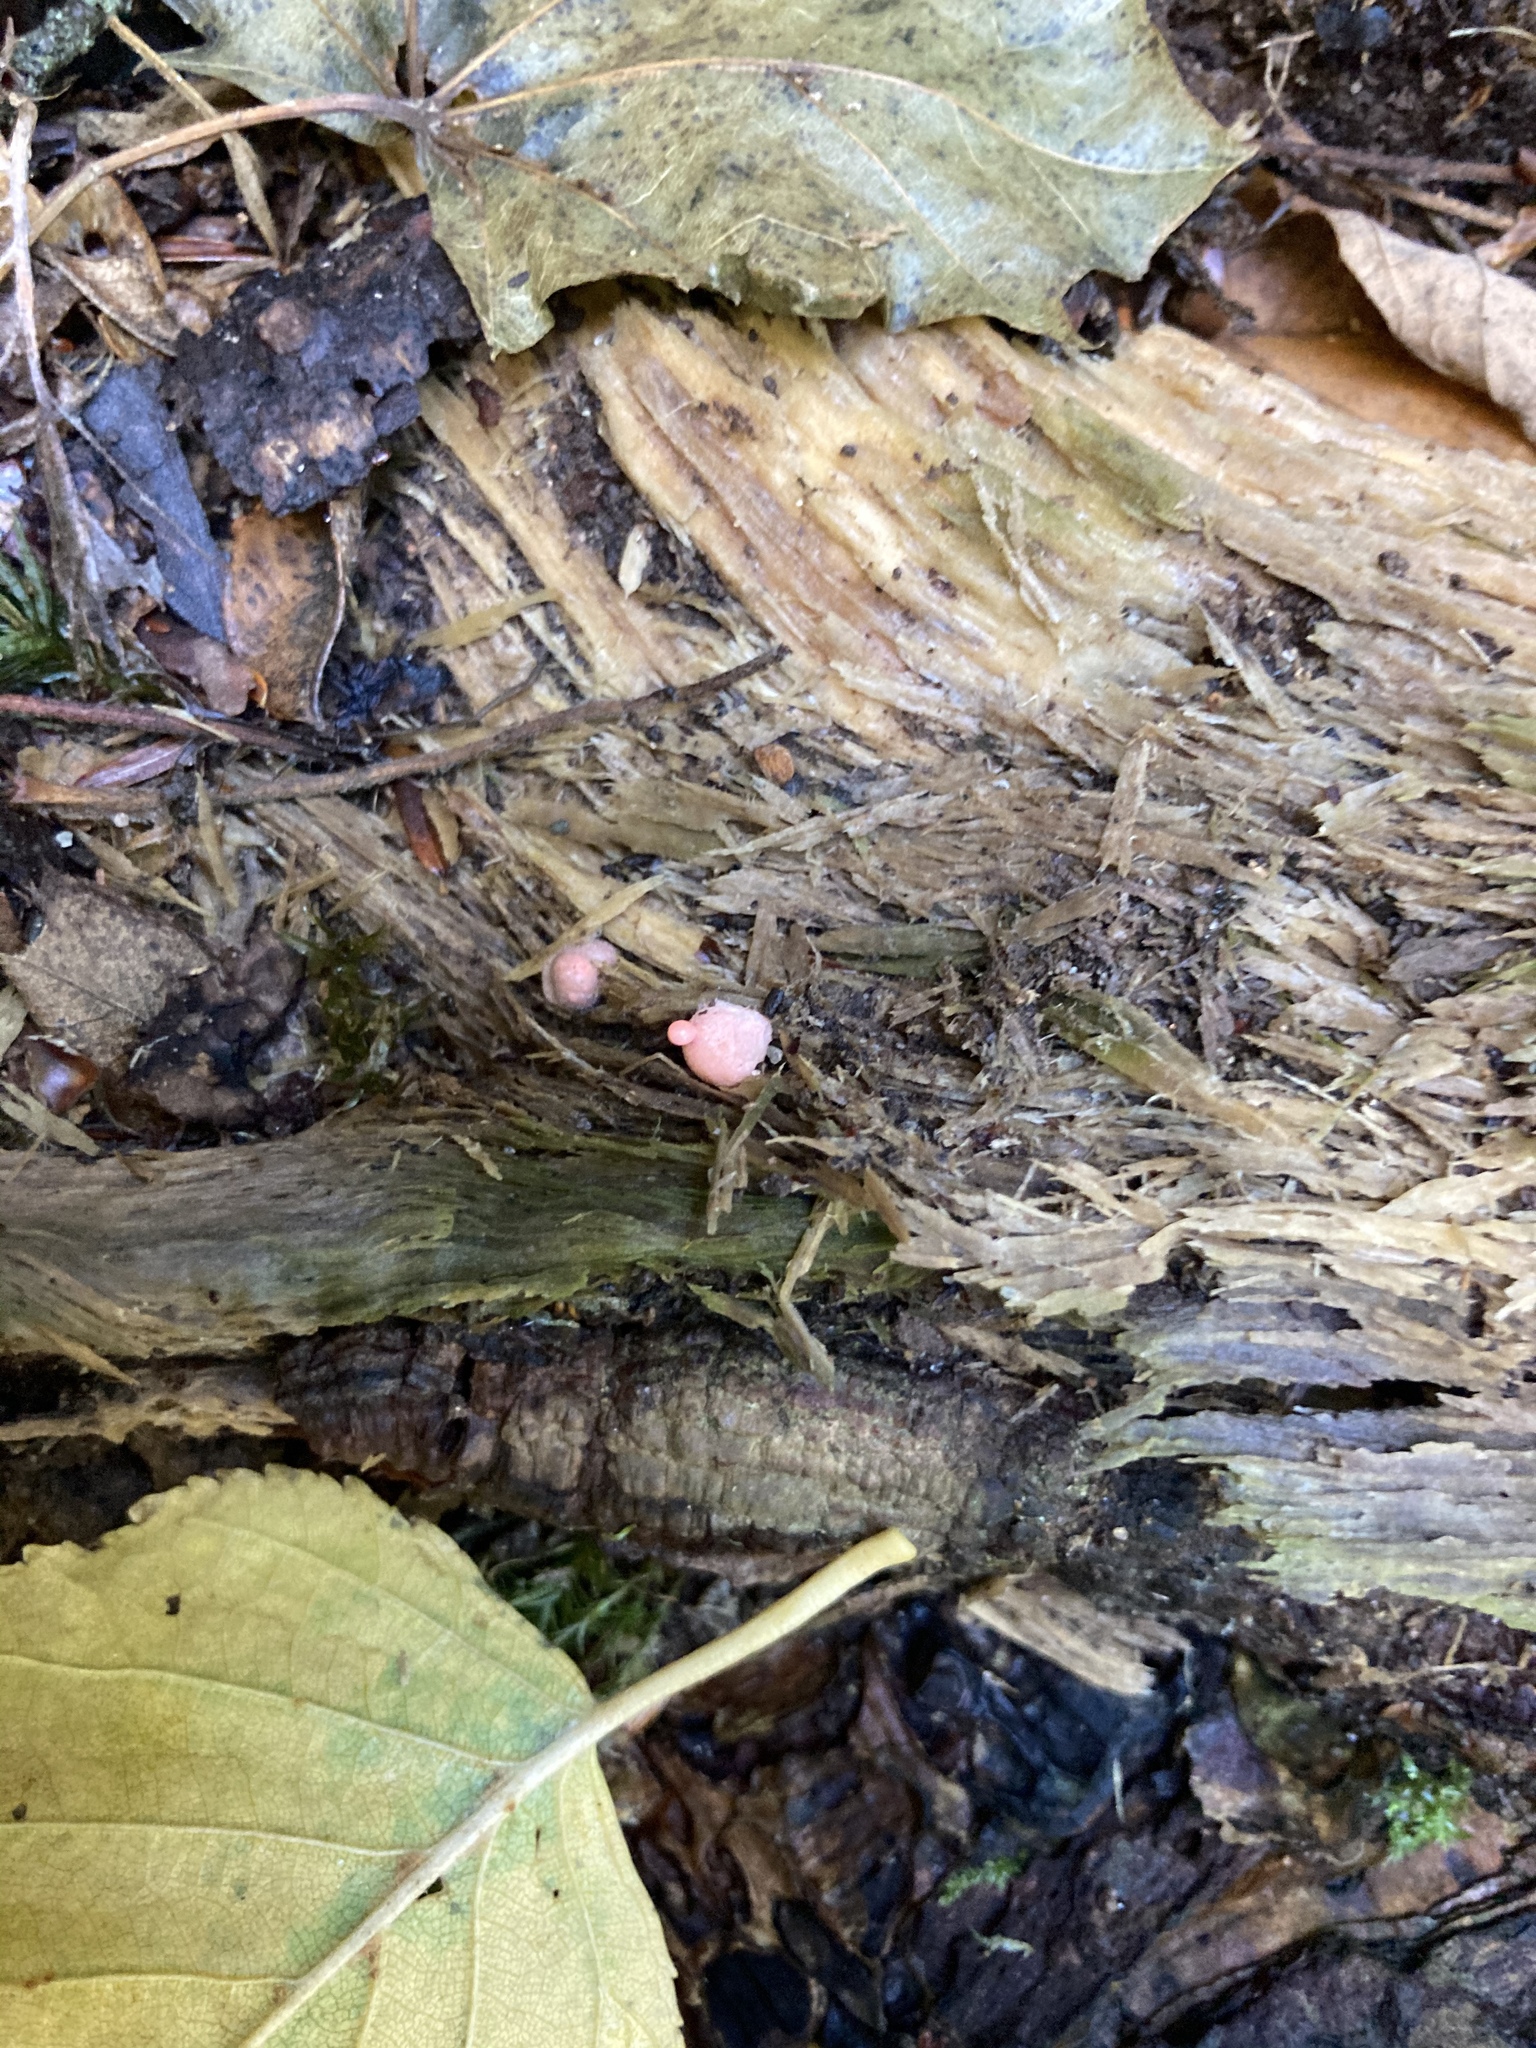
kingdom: Protozoa
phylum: Mycetozoa
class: Myxomycetes
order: Cribrariales
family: Tubiferaceae
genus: Lycogala
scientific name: Lycogala epidendrum
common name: Wolf's milk
